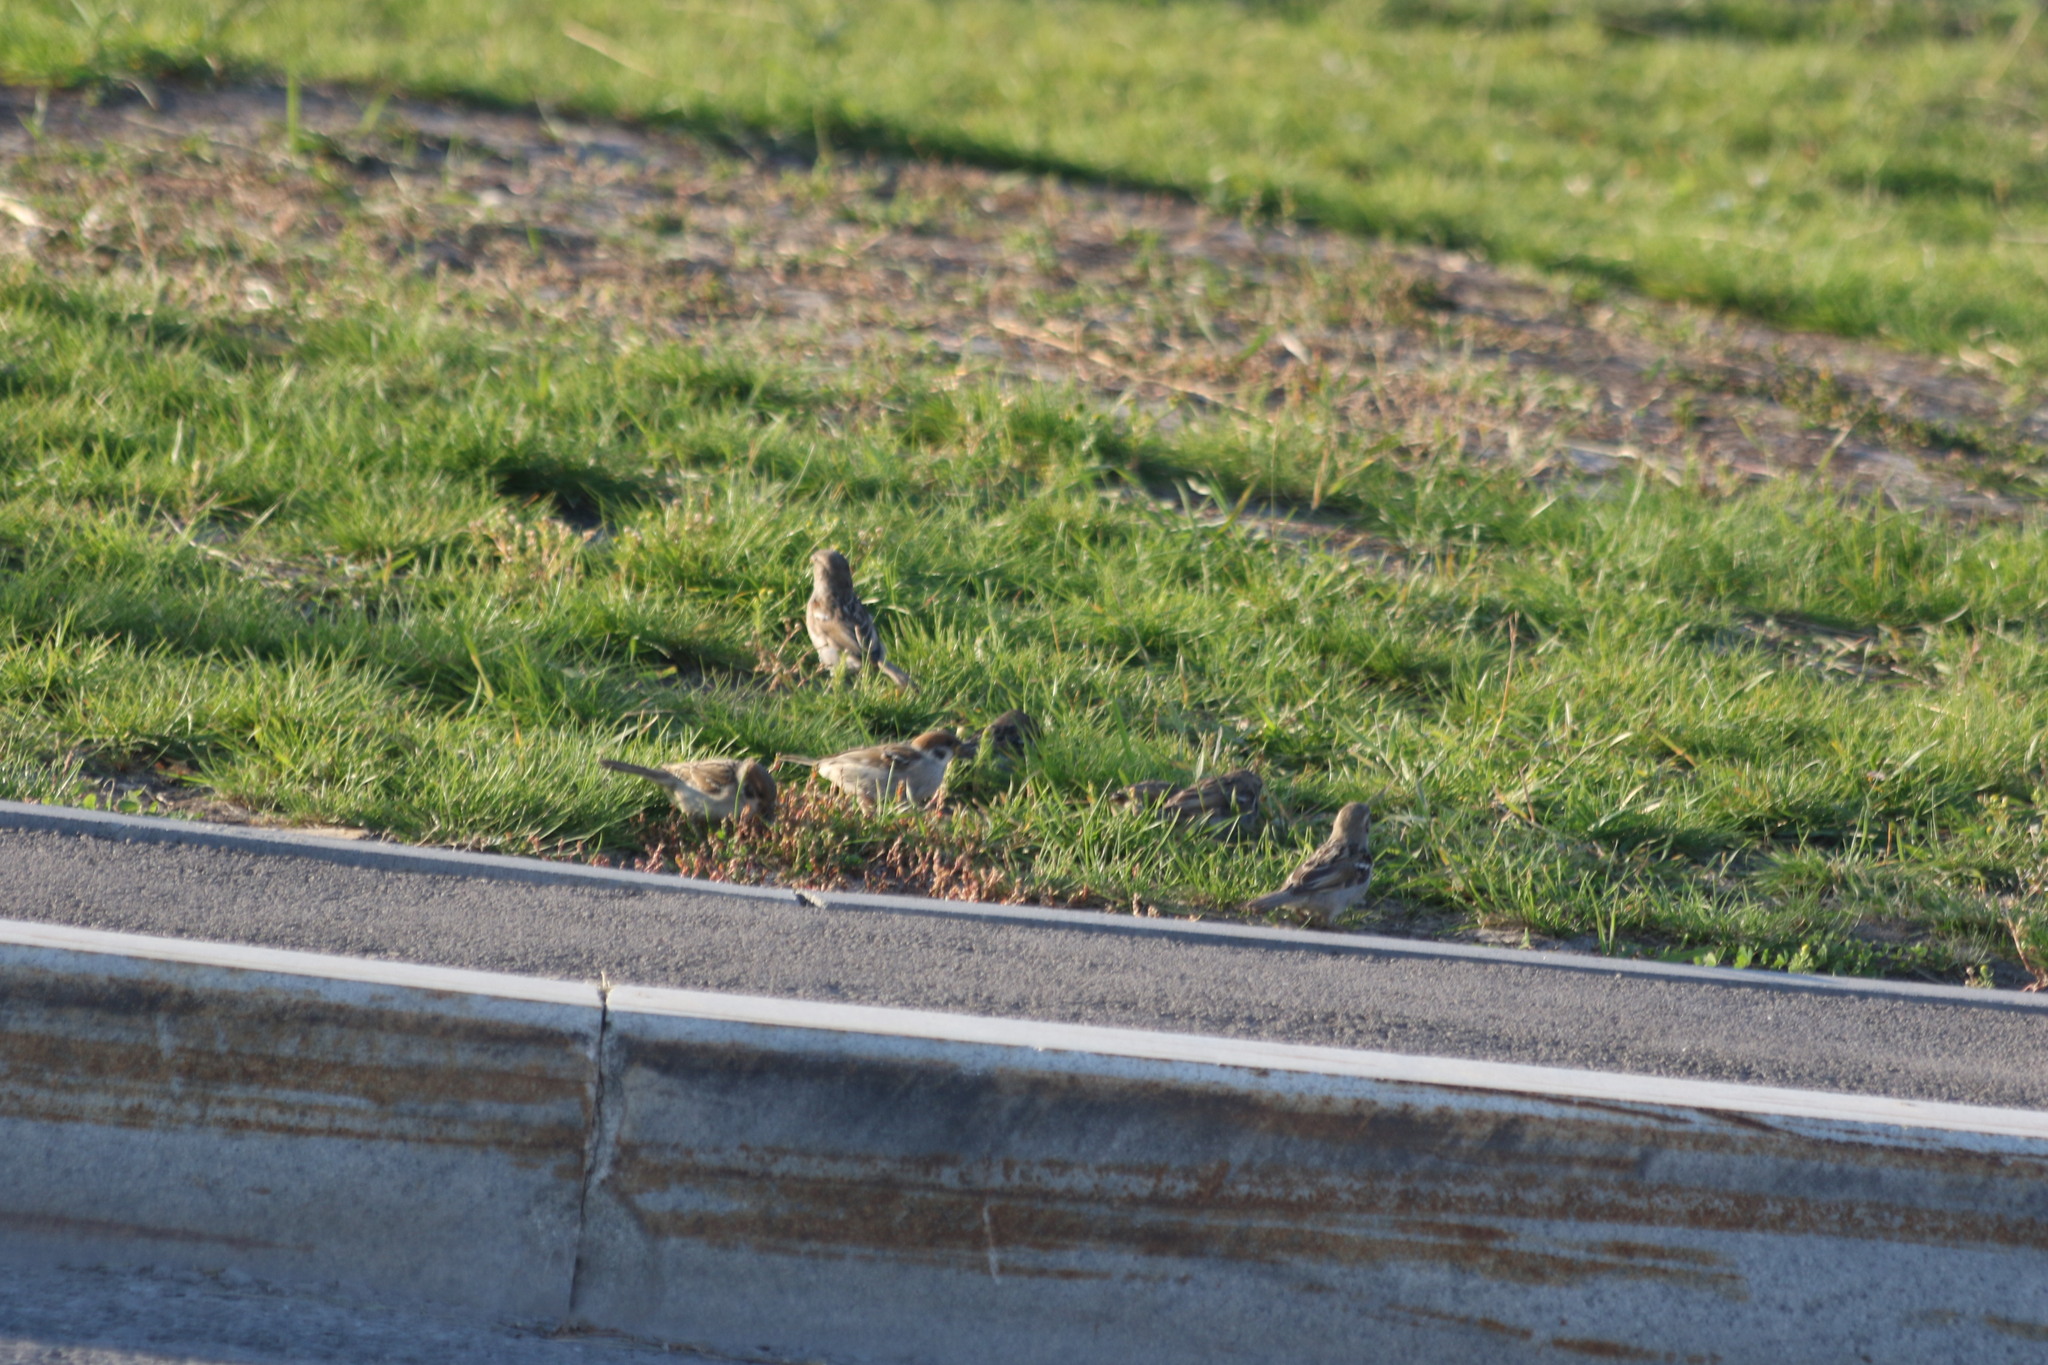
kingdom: Animalia
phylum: Chordata
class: Aves
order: Passeriformes
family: Passeridae
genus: Passer
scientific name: Passer montanus
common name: Eurasian tree sparrow
